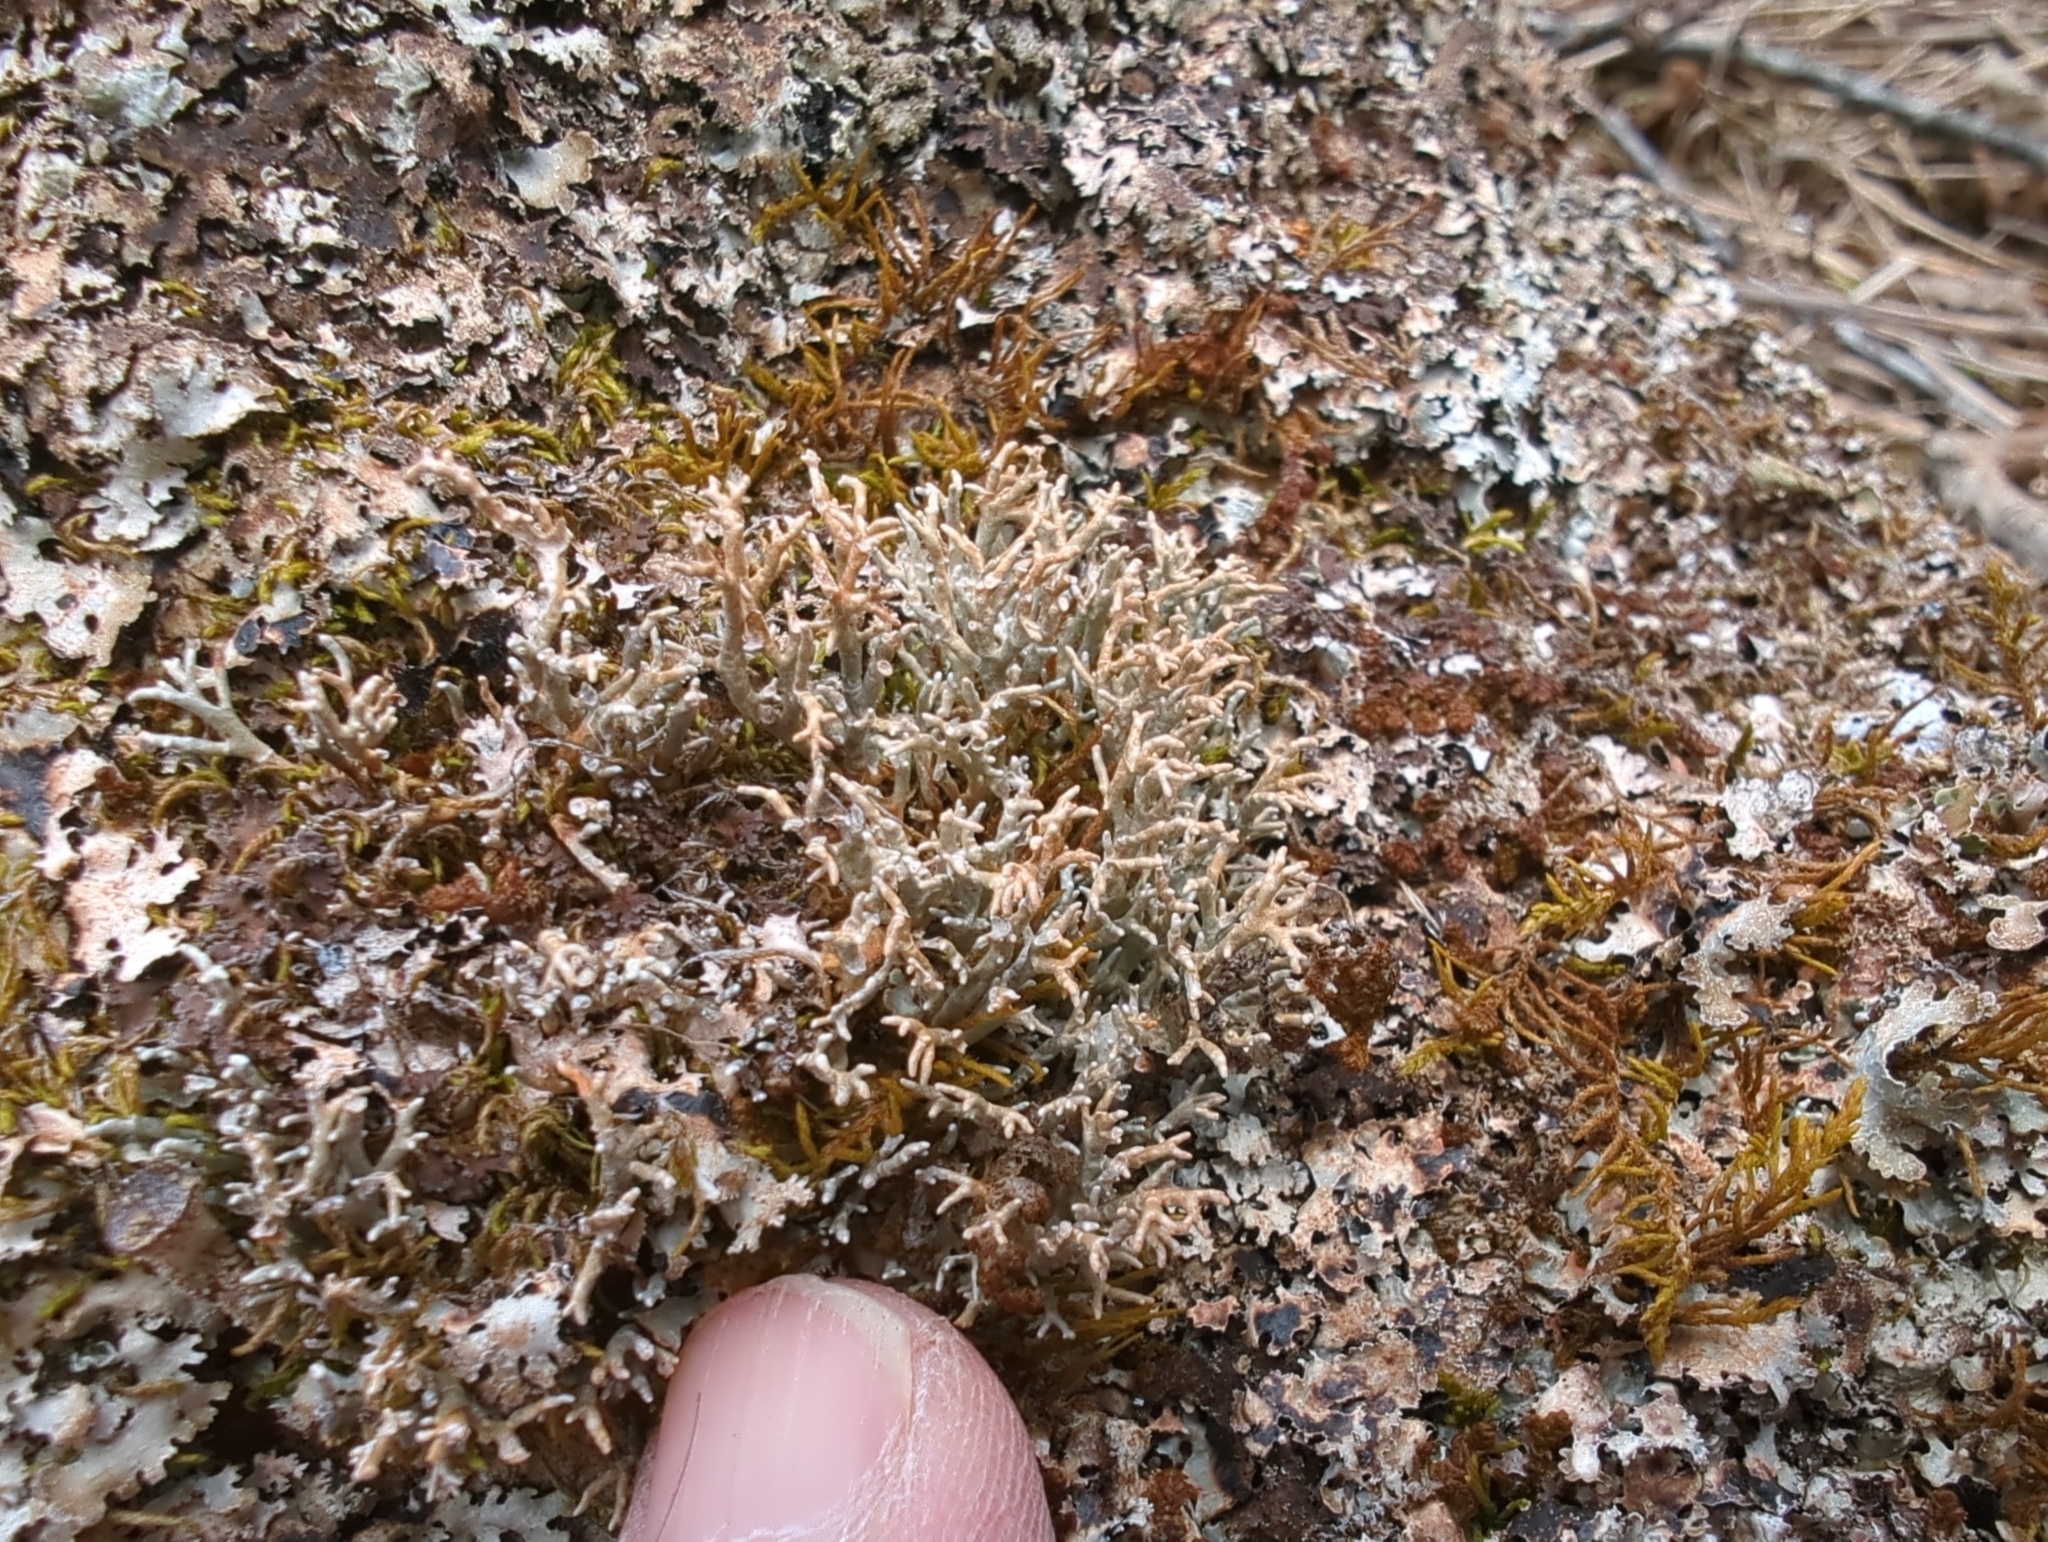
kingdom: Fungi
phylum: Ascomycota
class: Lecanoromycetes
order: Lecanorales
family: Sphaerophoraceae
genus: Sphaerophorus
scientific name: Sphaerophorus fragilis
